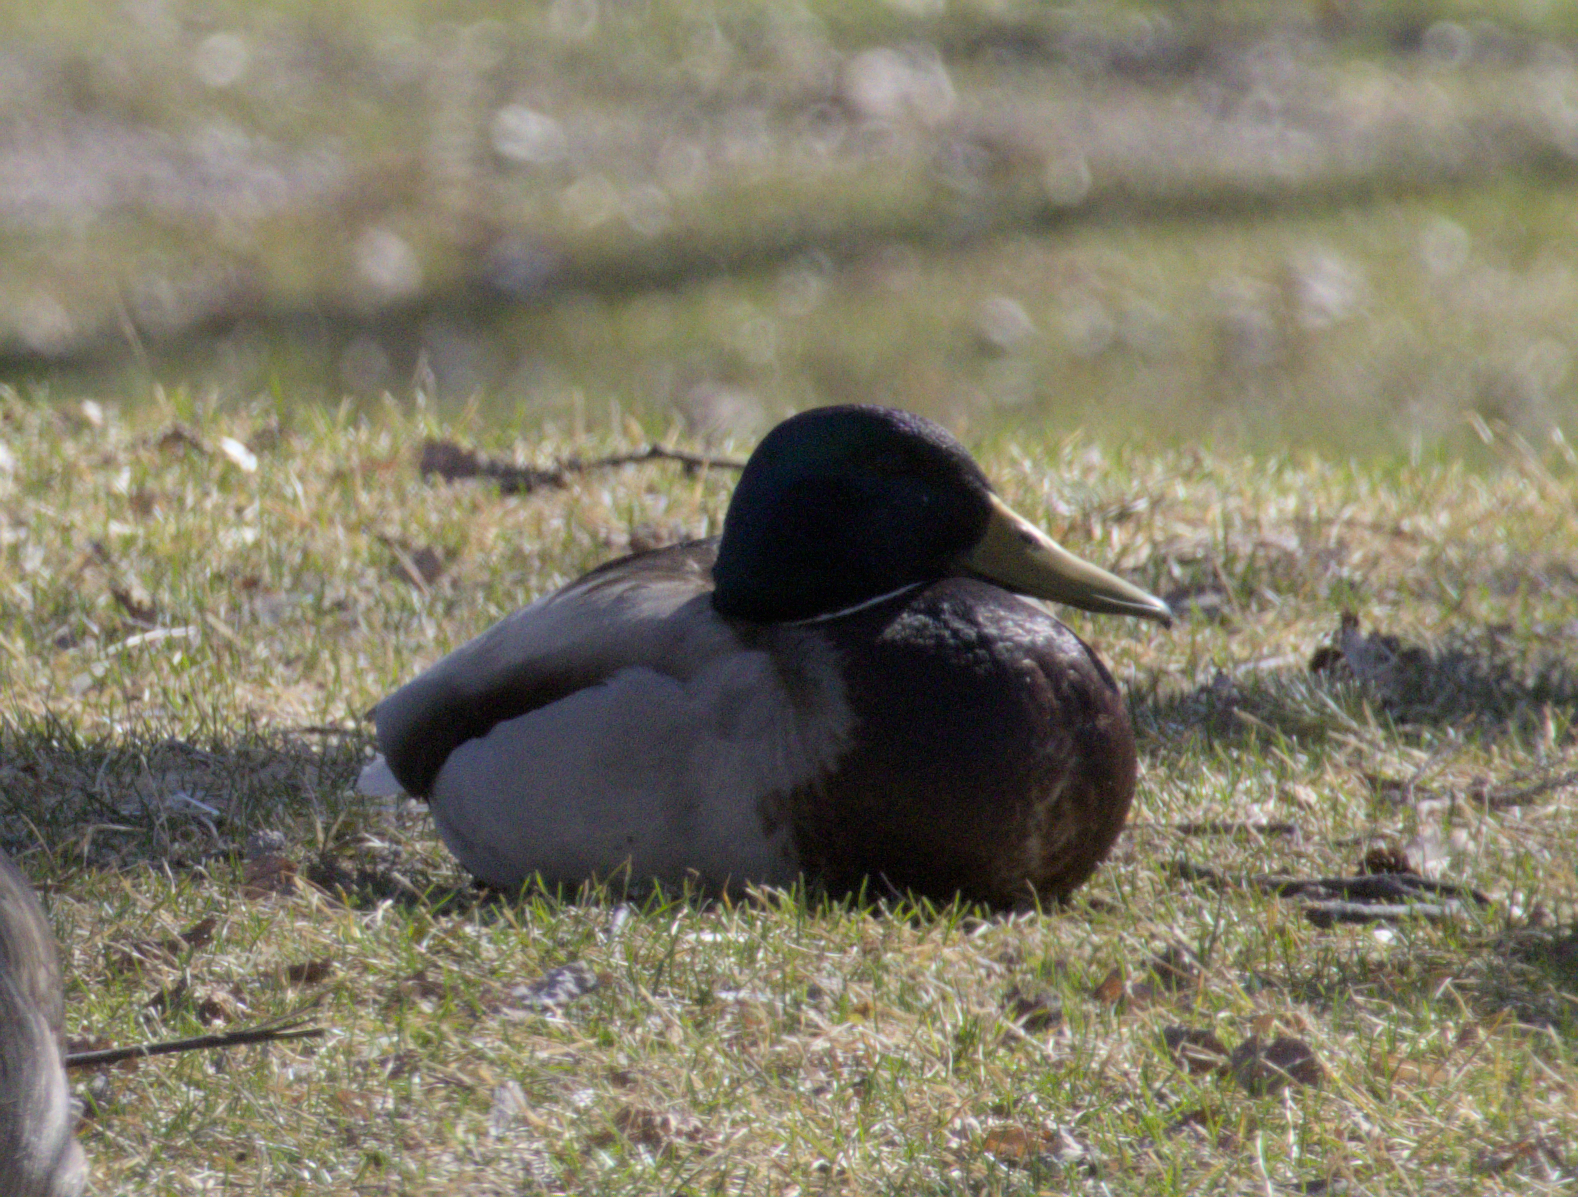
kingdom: Animalia
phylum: Chordata
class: Aves
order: Anseriformes
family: Anatidae
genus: Anas
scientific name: Anas platyrhynchos
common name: Mallard
